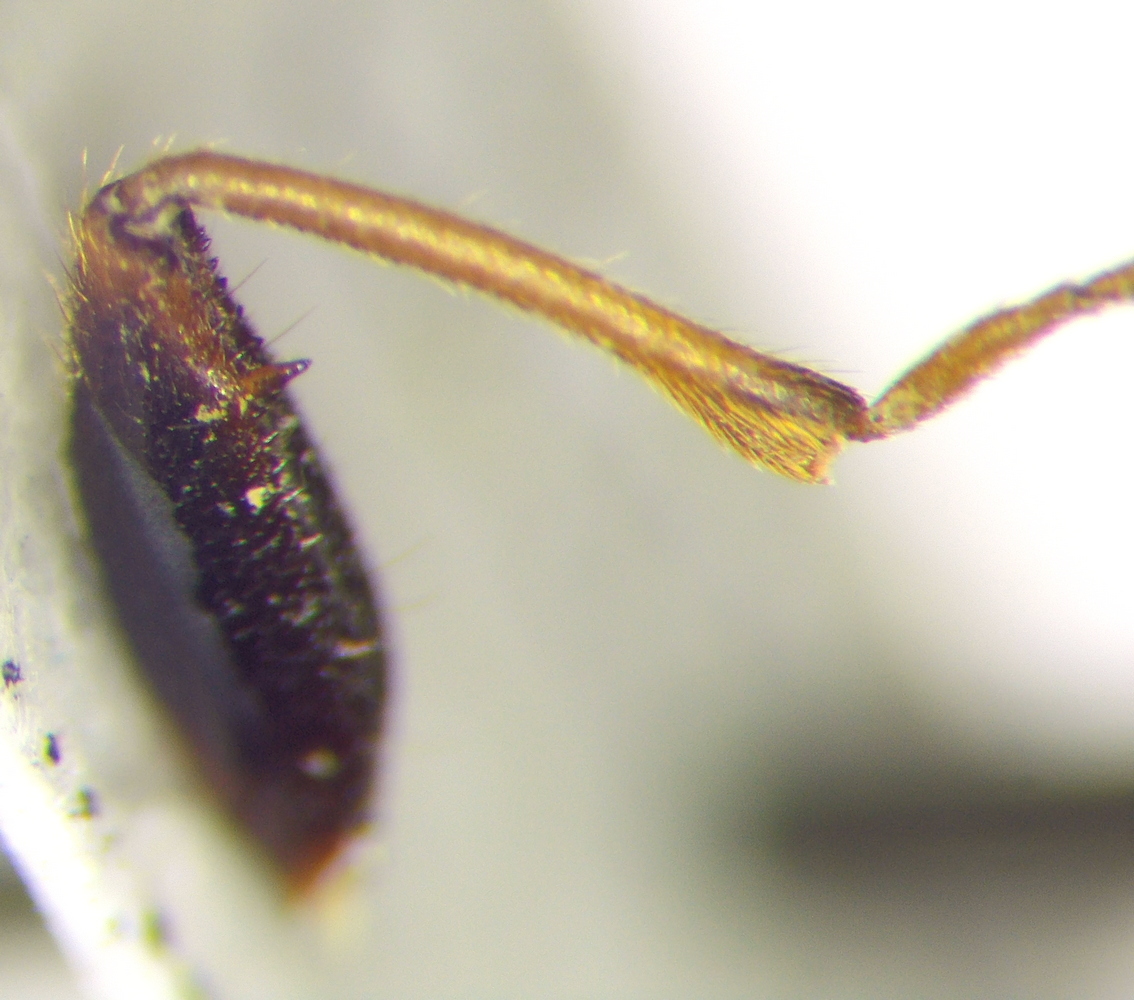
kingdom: Animalia
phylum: Arthropoda
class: Insecta
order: Hemiptera
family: Rhyparochromidae
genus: Eremocoris
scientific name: Eremocoris podagricus
